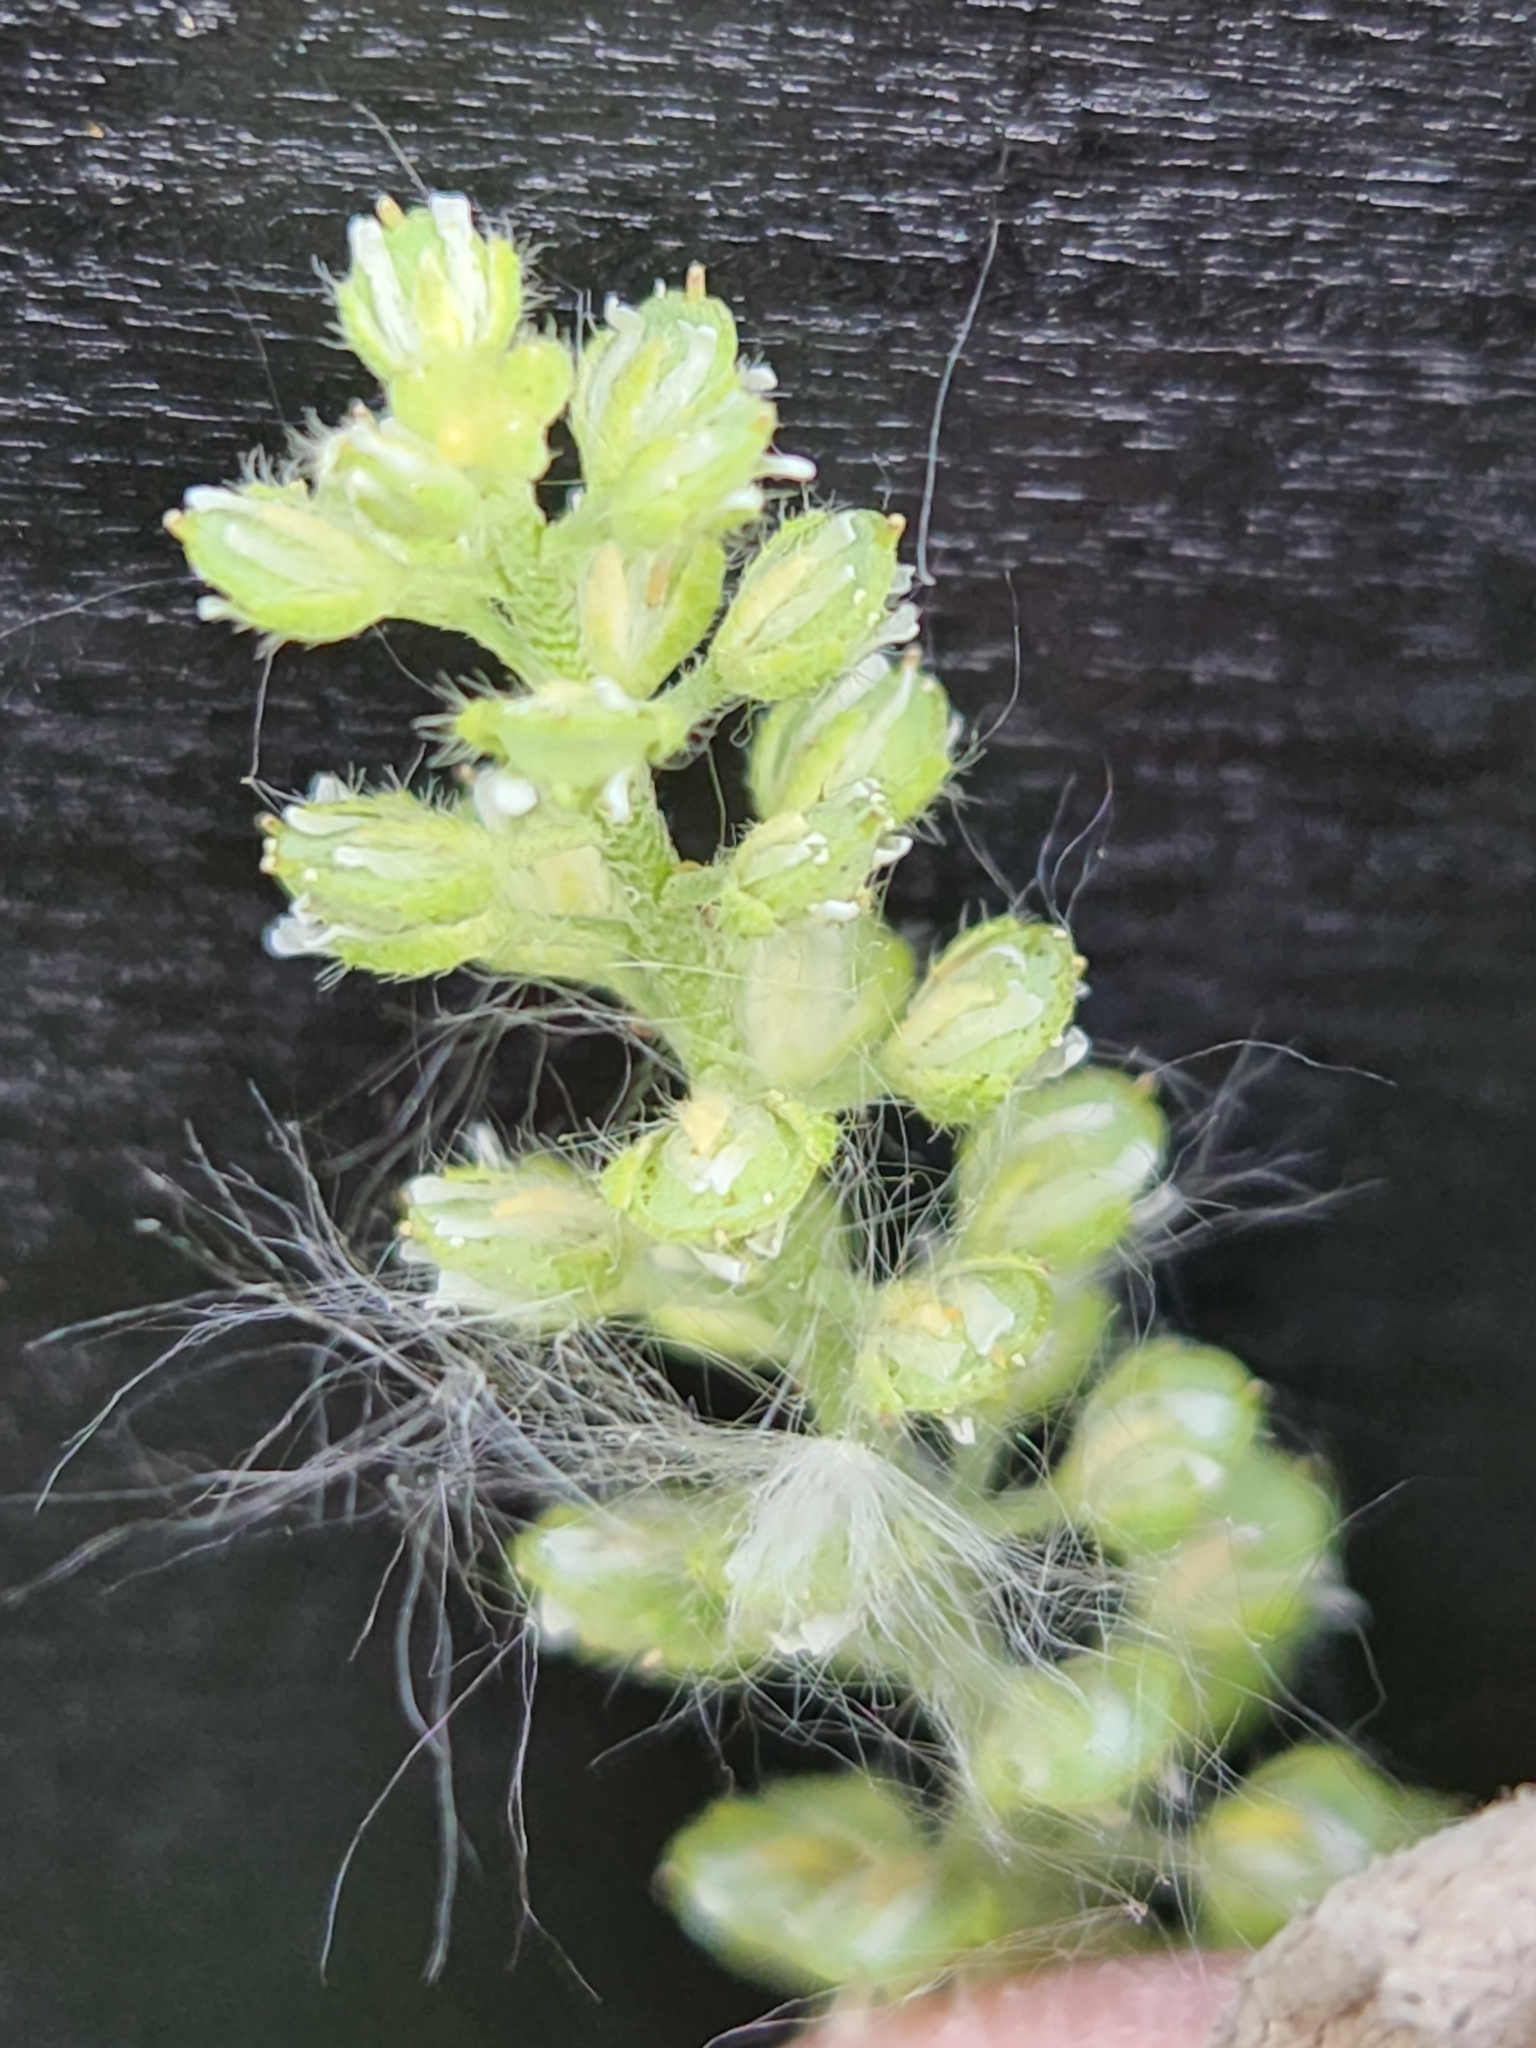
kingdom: Plantae
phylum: Tracheophyta
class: Magnoliopsida
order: Brassicales
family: Brassicaceae
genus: Alyssum
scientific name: Alyssum alyssoides
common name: Small alison
